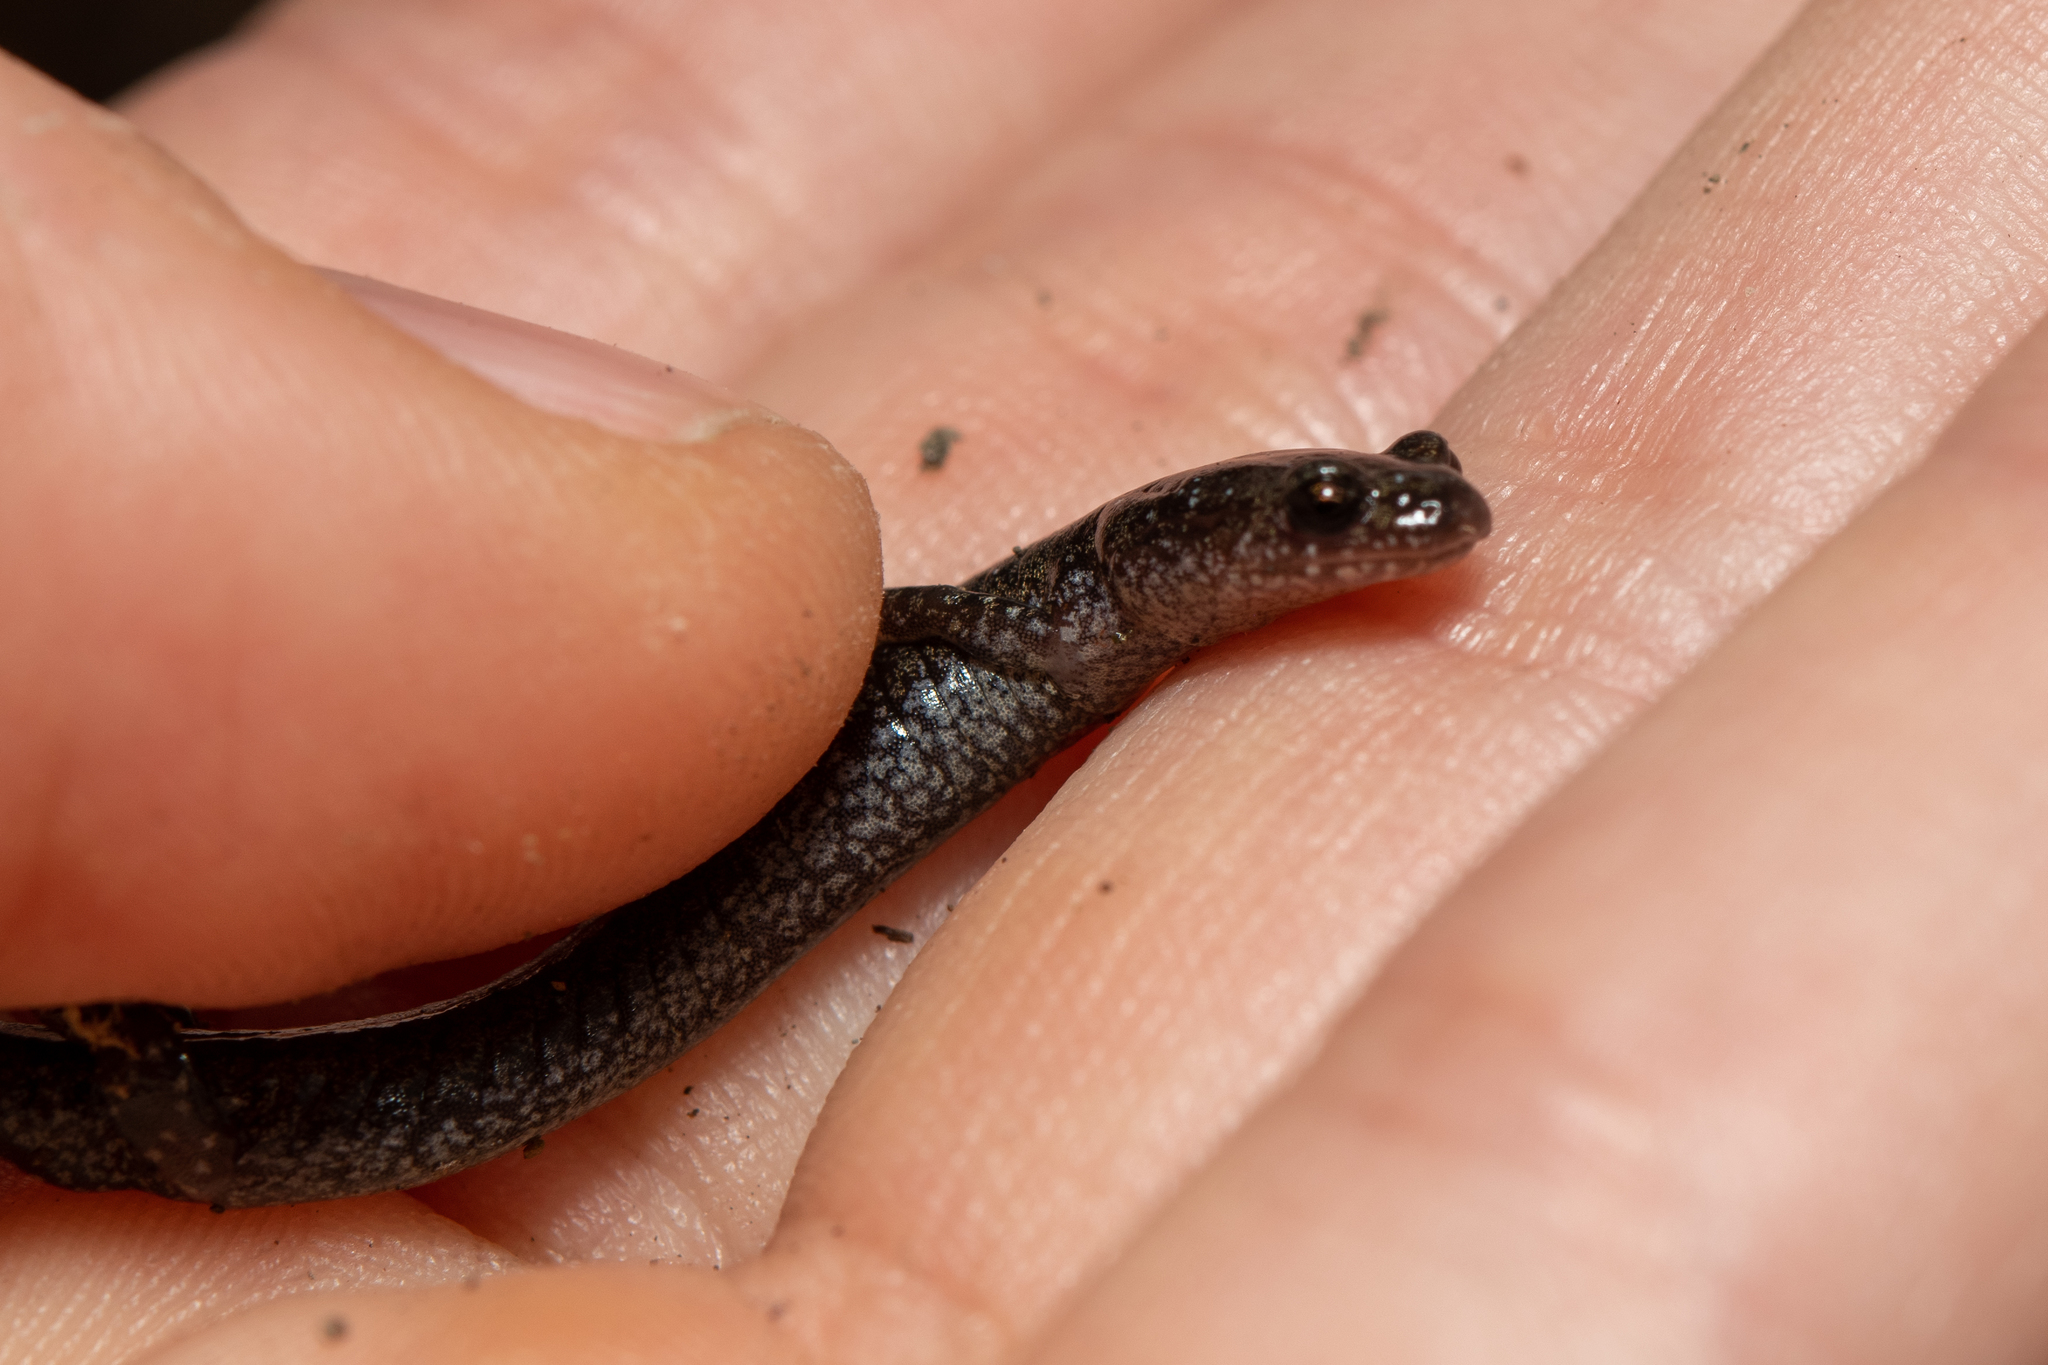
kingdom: Animalia
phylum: Chordata
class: Amphibia
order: Caudata
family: Plethodontidae
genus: Plethodon
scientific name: Plethodon hoffmani
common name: Valley and ridge salamander
